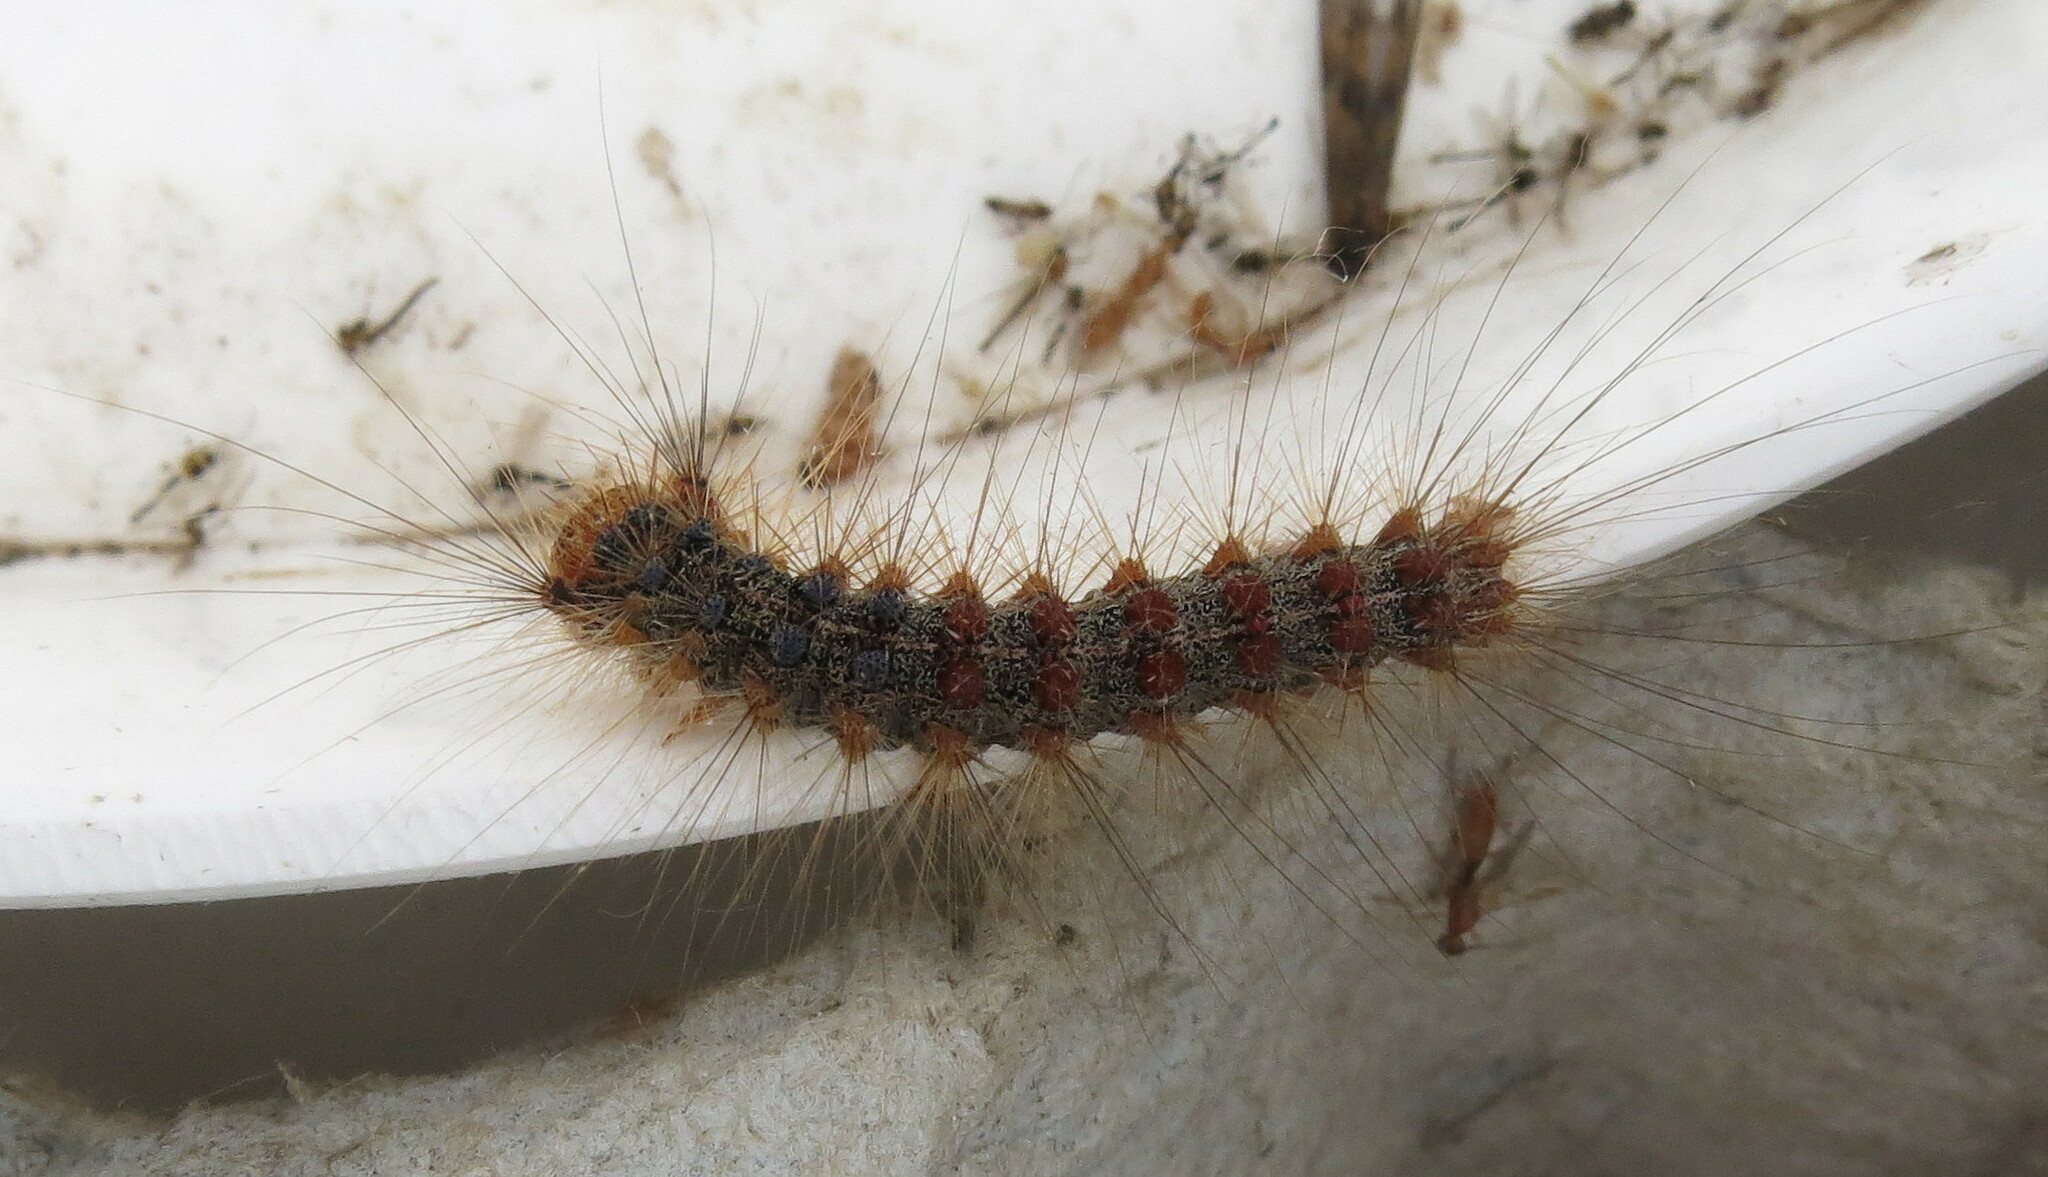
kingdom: Animalia
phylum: Arthropoda
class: Insecta
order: Lepidoptera
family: Erebidae
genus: Lymantria
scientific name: Lymantria dispar
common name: Gypsy moth
